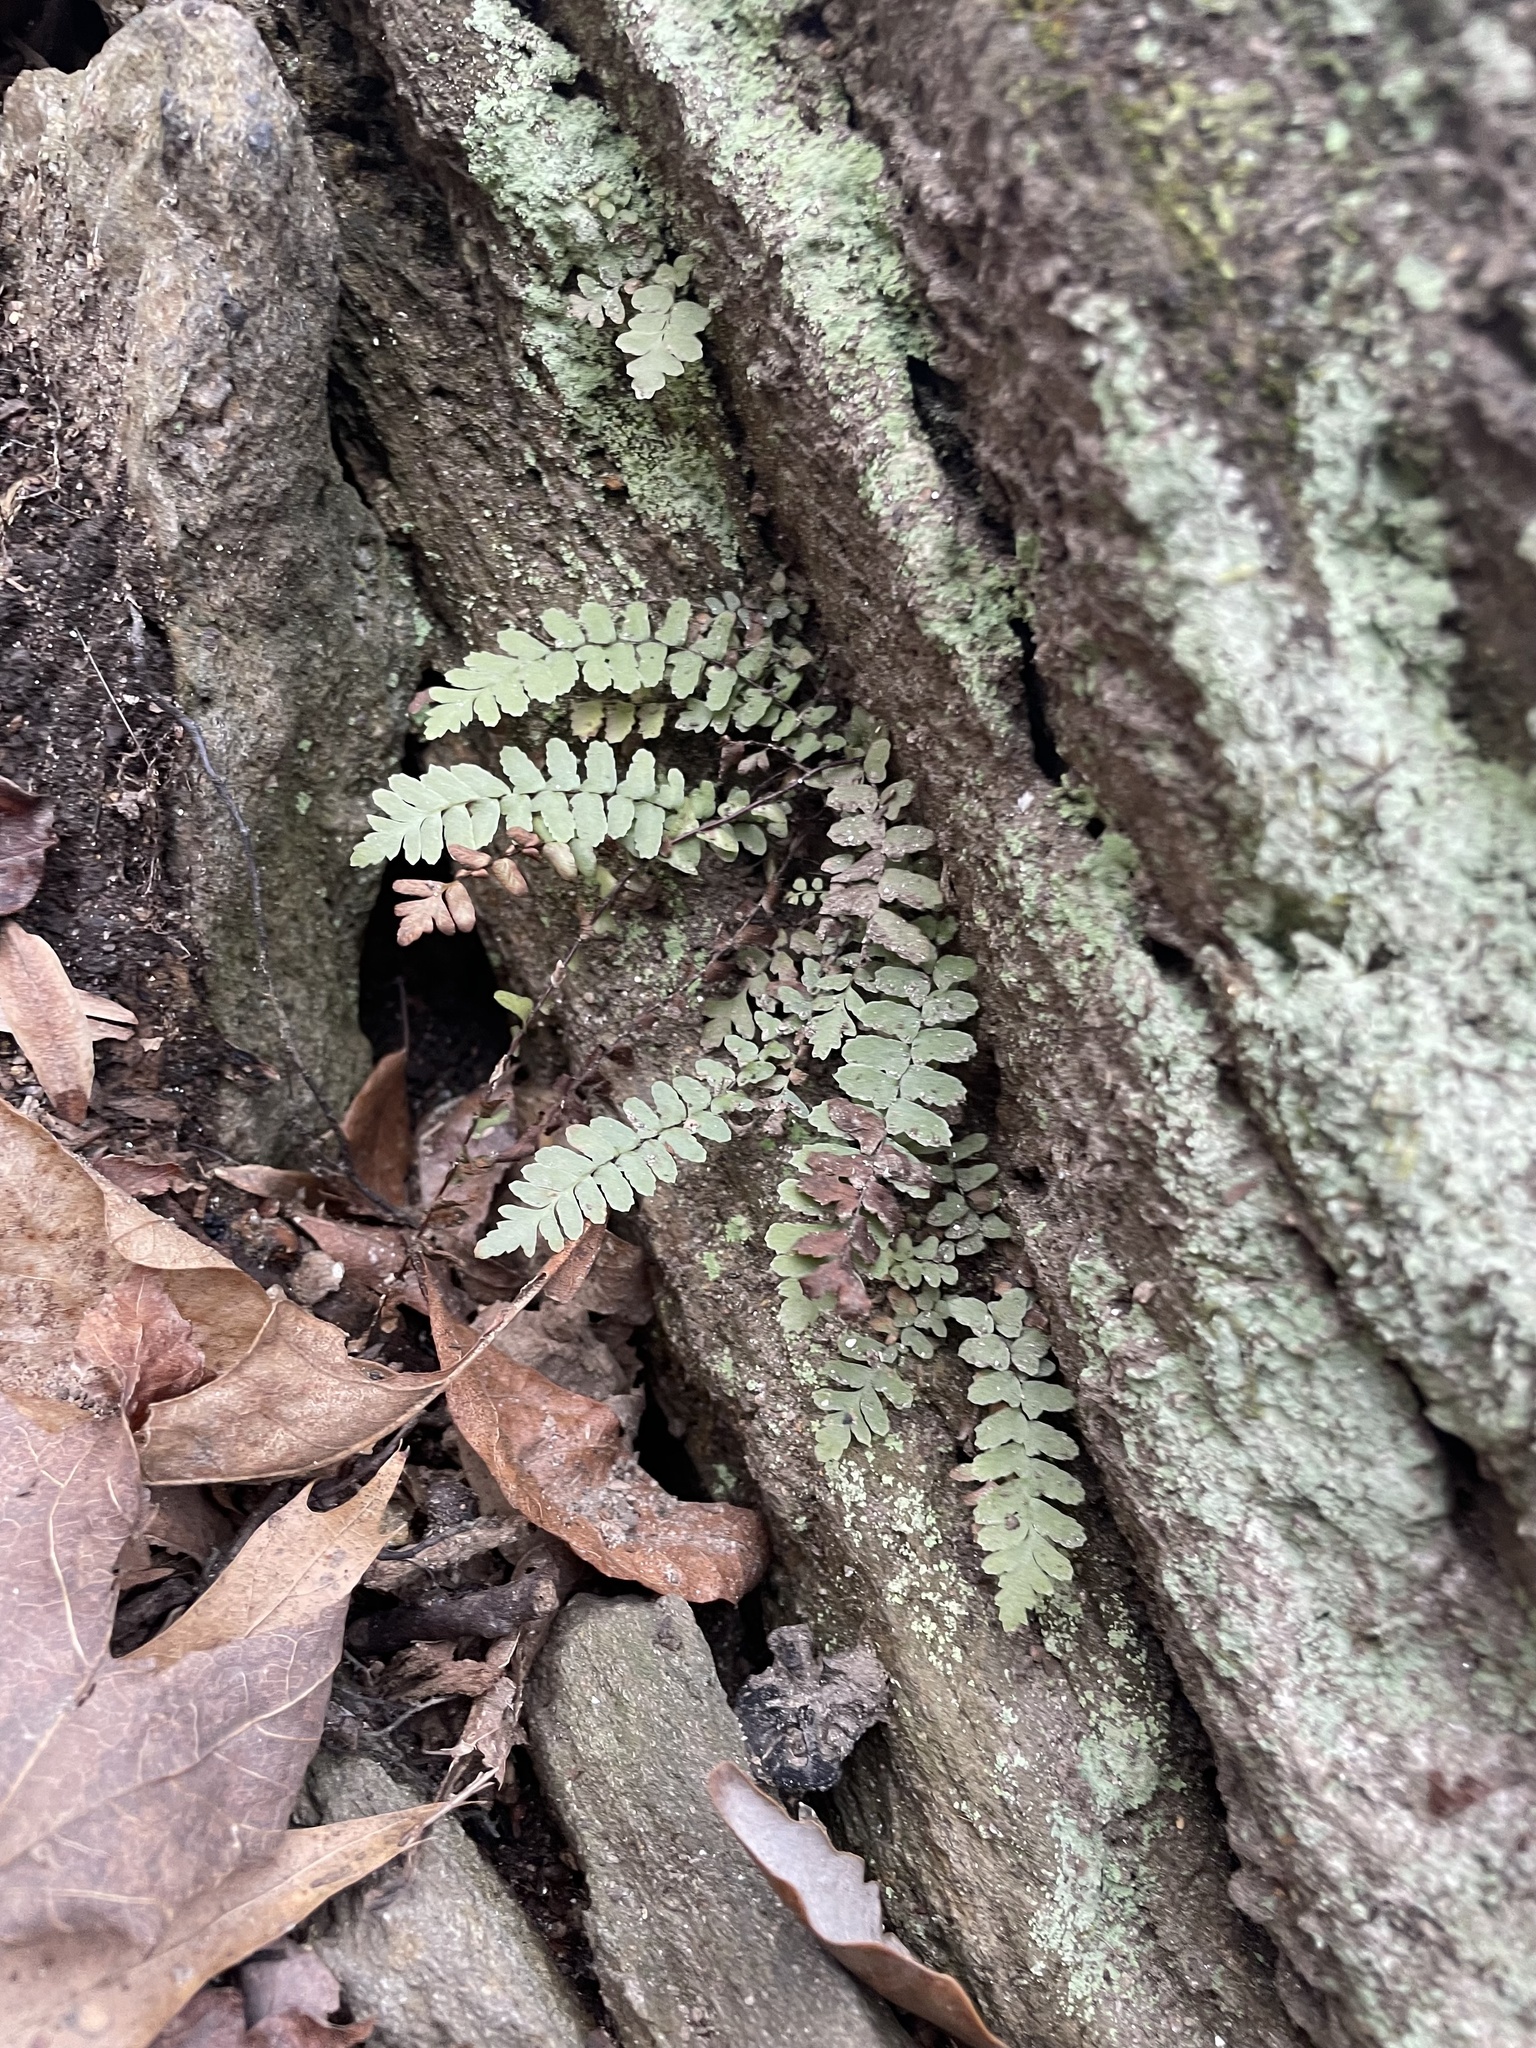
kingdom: Plantae
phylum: Tracheophyta
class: Polypodiopsida
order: Polypodiales
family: Aspleniaceae
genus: Asplenium
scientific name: Asplenium platyneuron
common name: Ebony spleenwort
